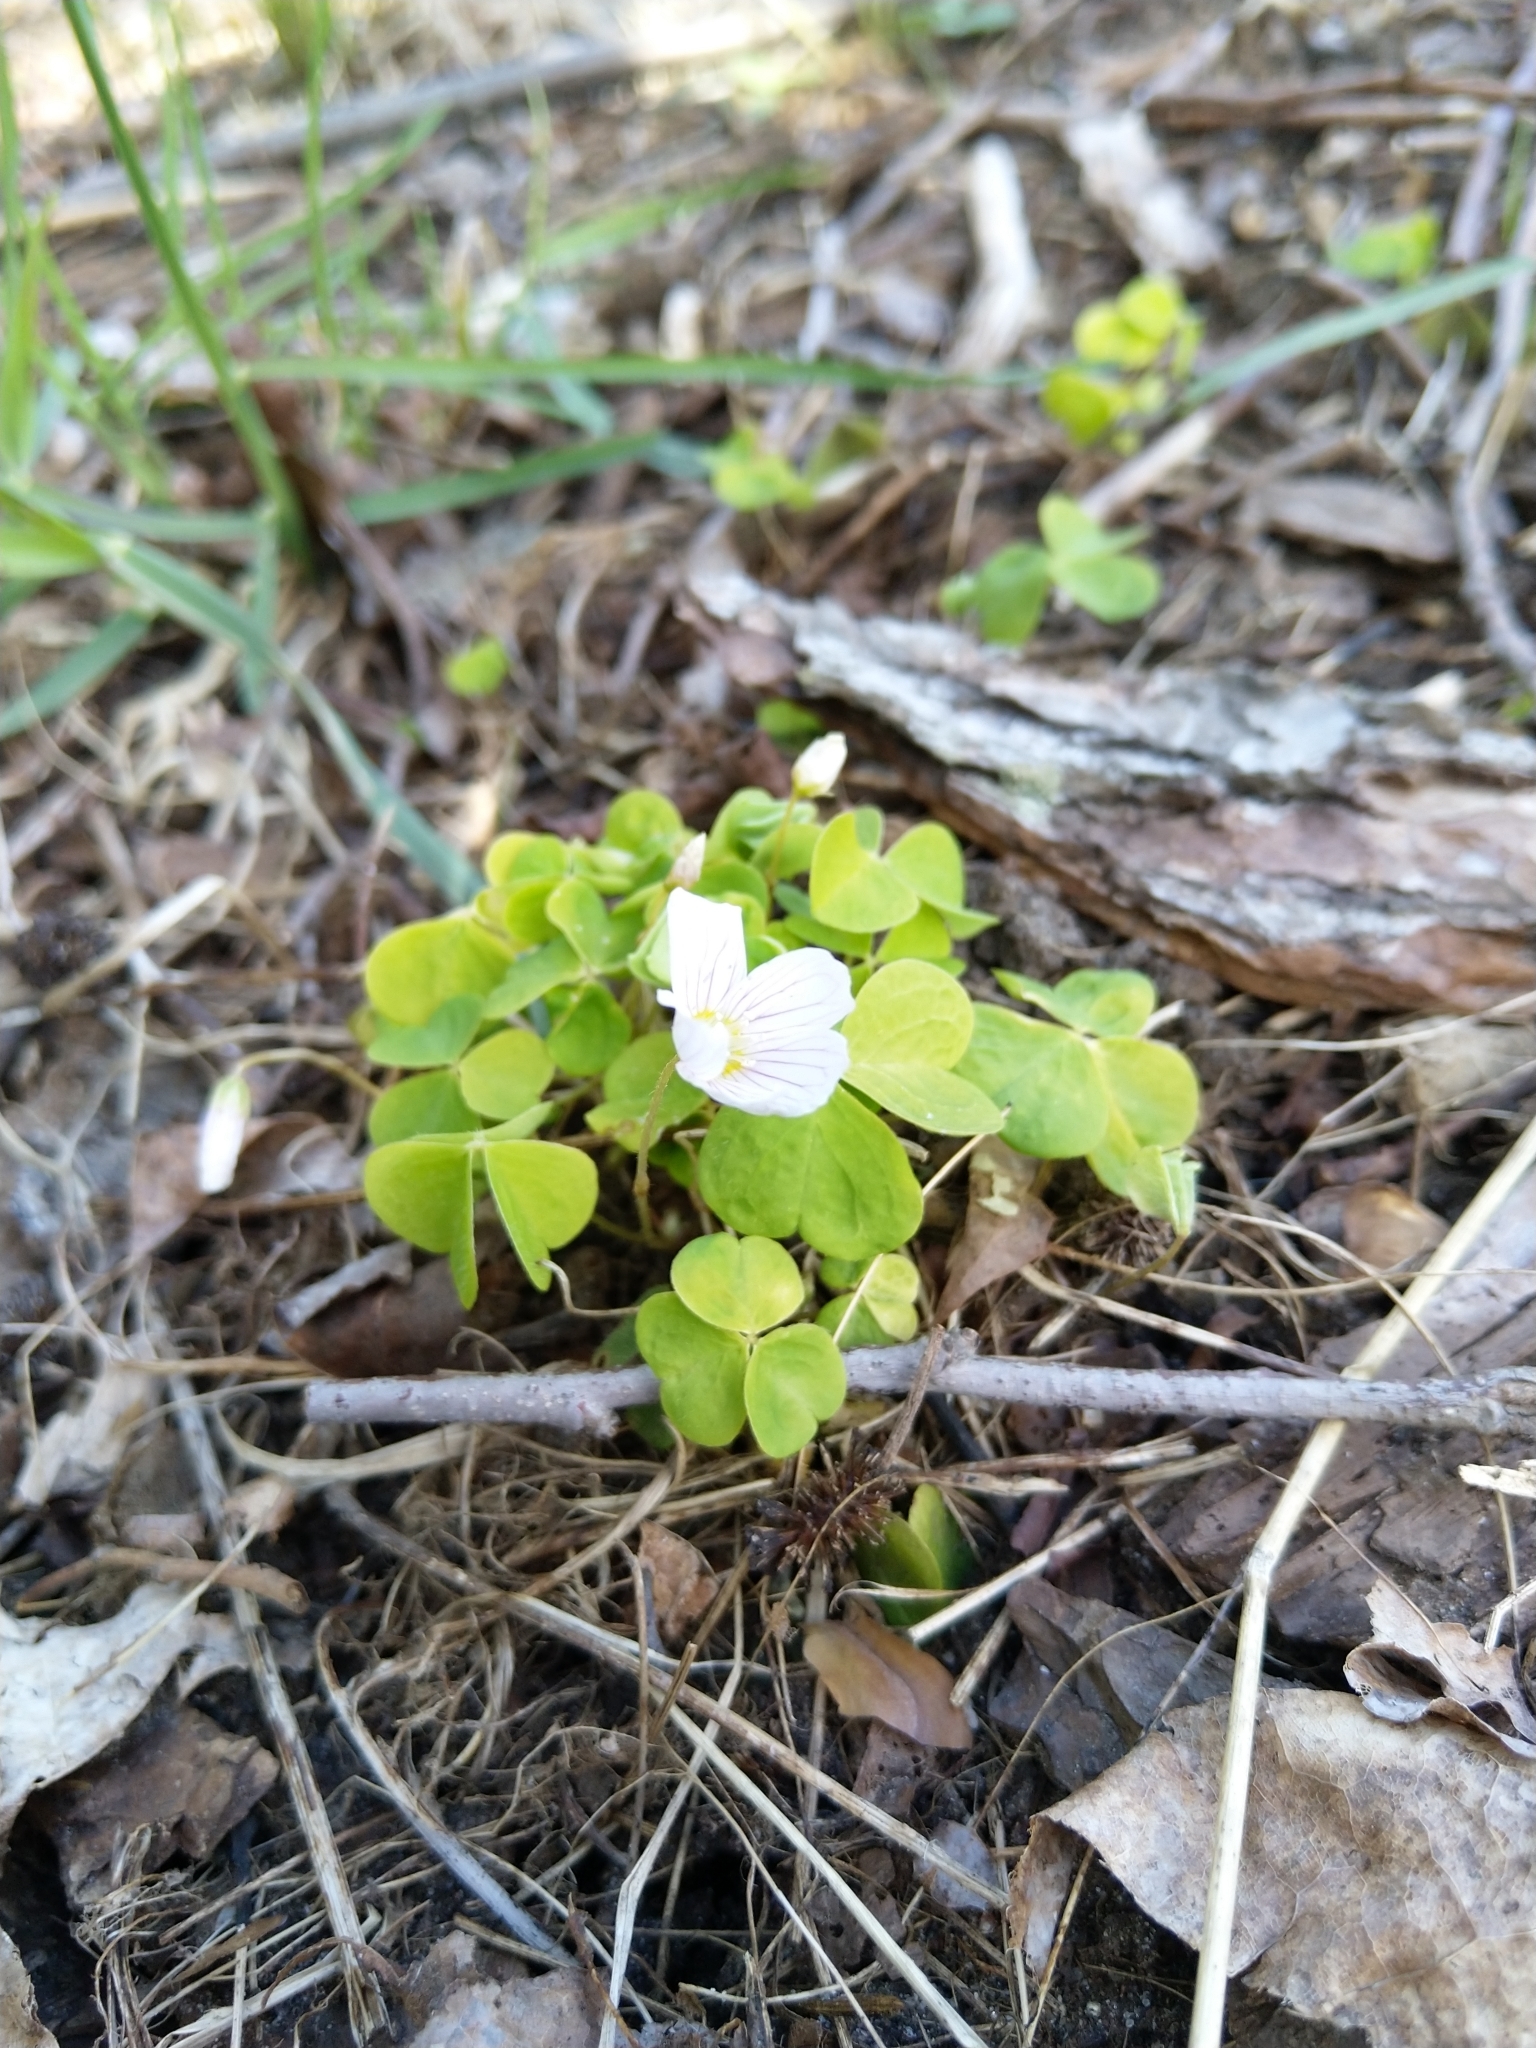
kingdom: Plantae
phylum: Tracheophyta
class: Magnoliopsida
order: Ranunculales
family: Ranunculaceae
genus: Anemone
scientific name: Anemone nemorosa
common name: Wood anemone
